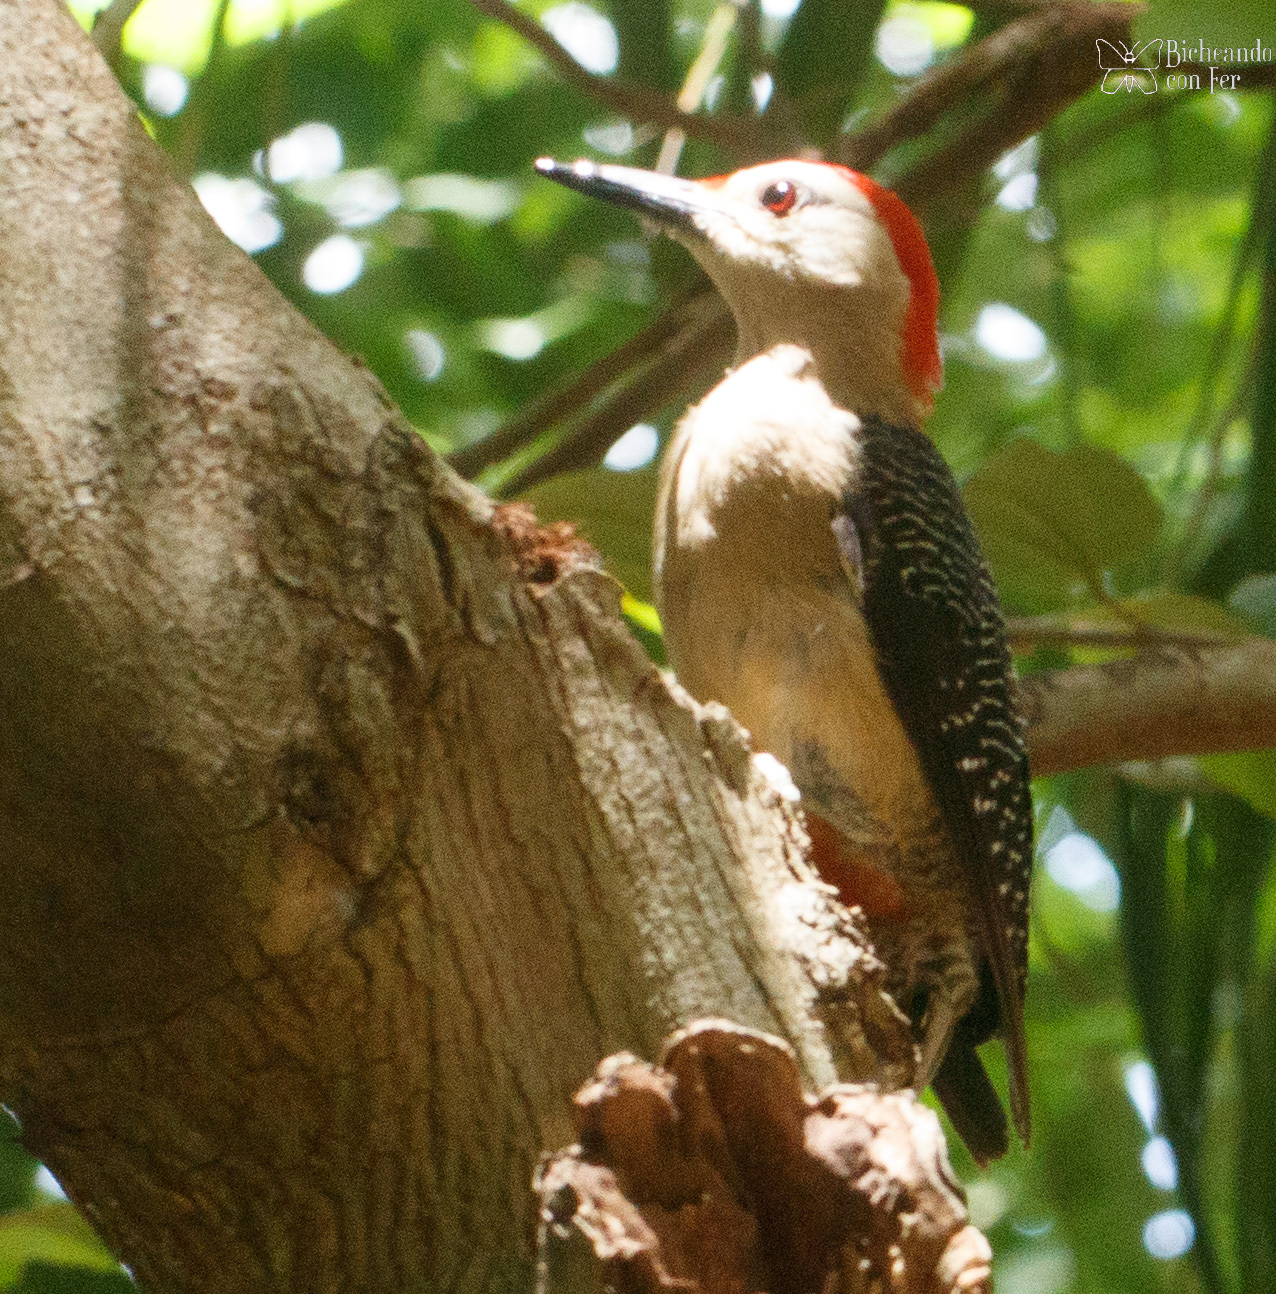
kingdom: Animalia
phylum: Chordata
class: Aves
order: Piciformes
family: Picidae
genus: Melanerpes
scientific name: Melanerpes aurifrons
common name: Golden-fronted woodpecker
